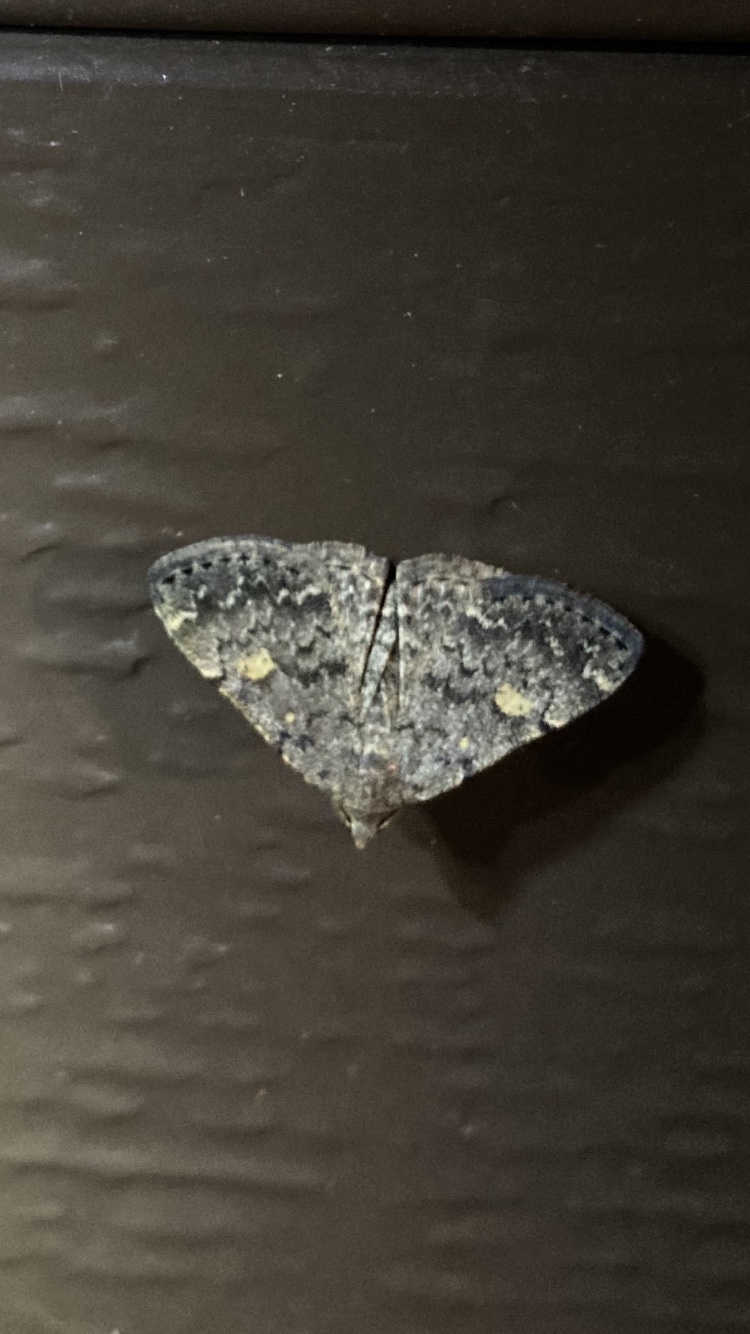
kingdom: Animalia
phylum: Arthropoda
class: Insecta
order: Lepidoptera
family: Erebidae
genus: Idia
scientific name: Idia aemula
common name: Common idia moth
